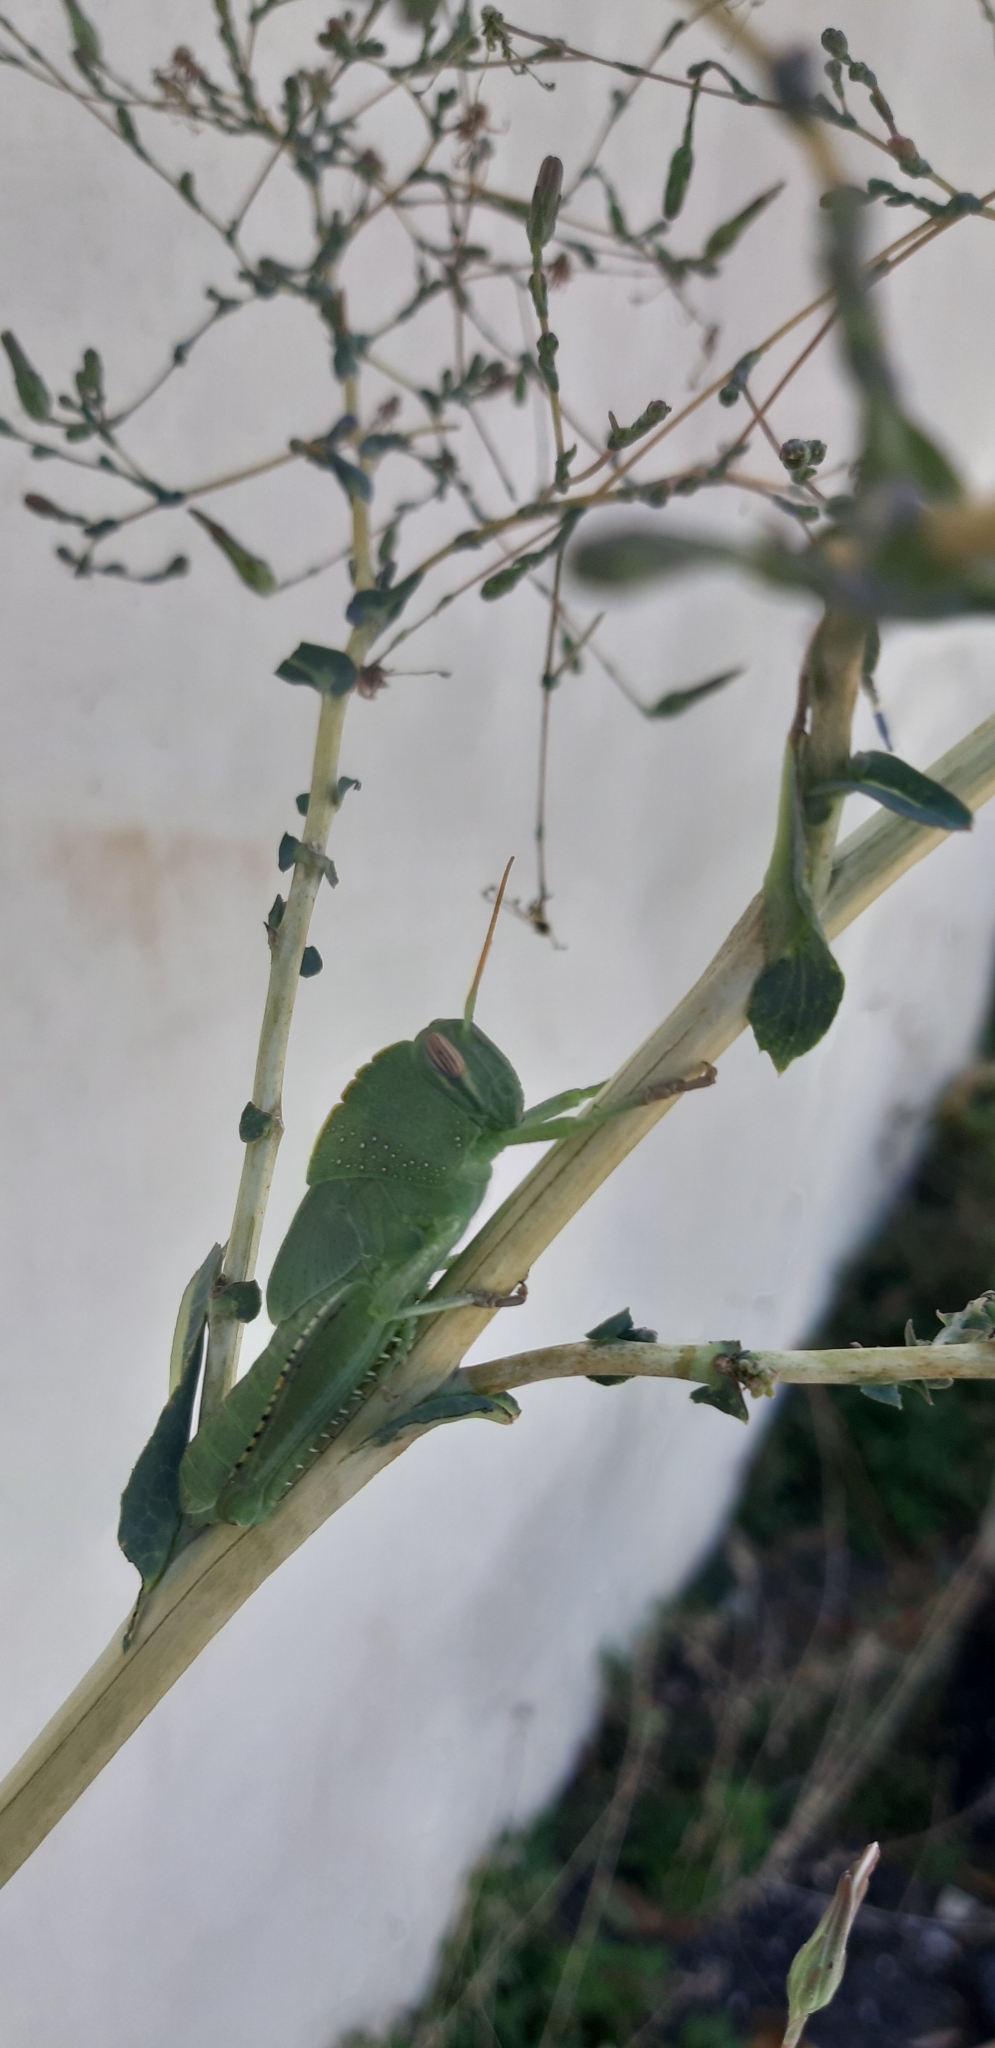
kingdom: Animalia
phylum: Arthropoda
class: Insecta
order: Orthoptera
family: Acrididae
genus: Anacridium
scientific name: Anacridium aegyptium
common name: Egyptian grasshopper
